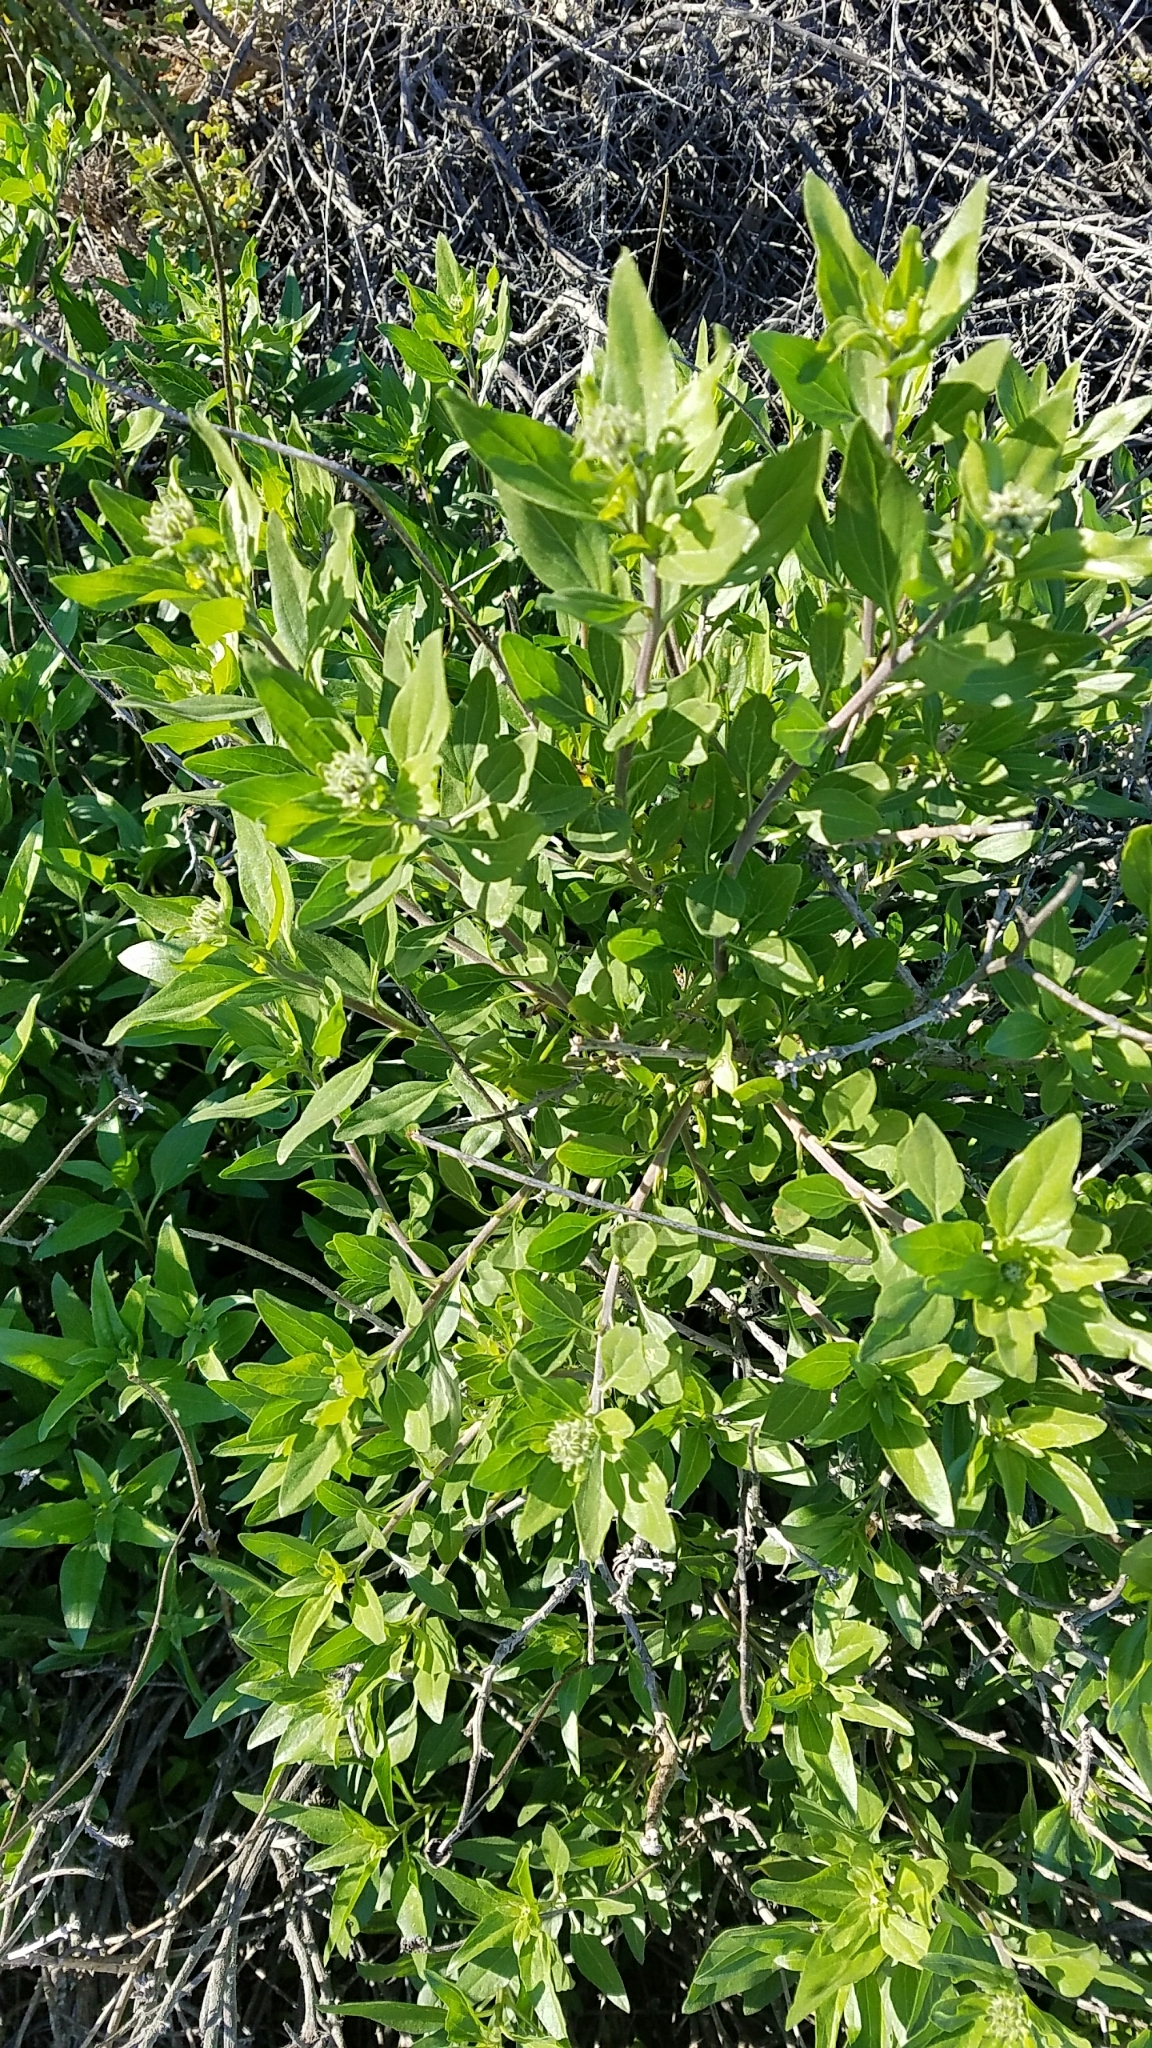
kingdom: Plantae
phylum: Tracheophyta
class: Magnoliopsida
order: Asterales
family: Asteraceae
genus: Encelia
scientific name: Encelia californica
